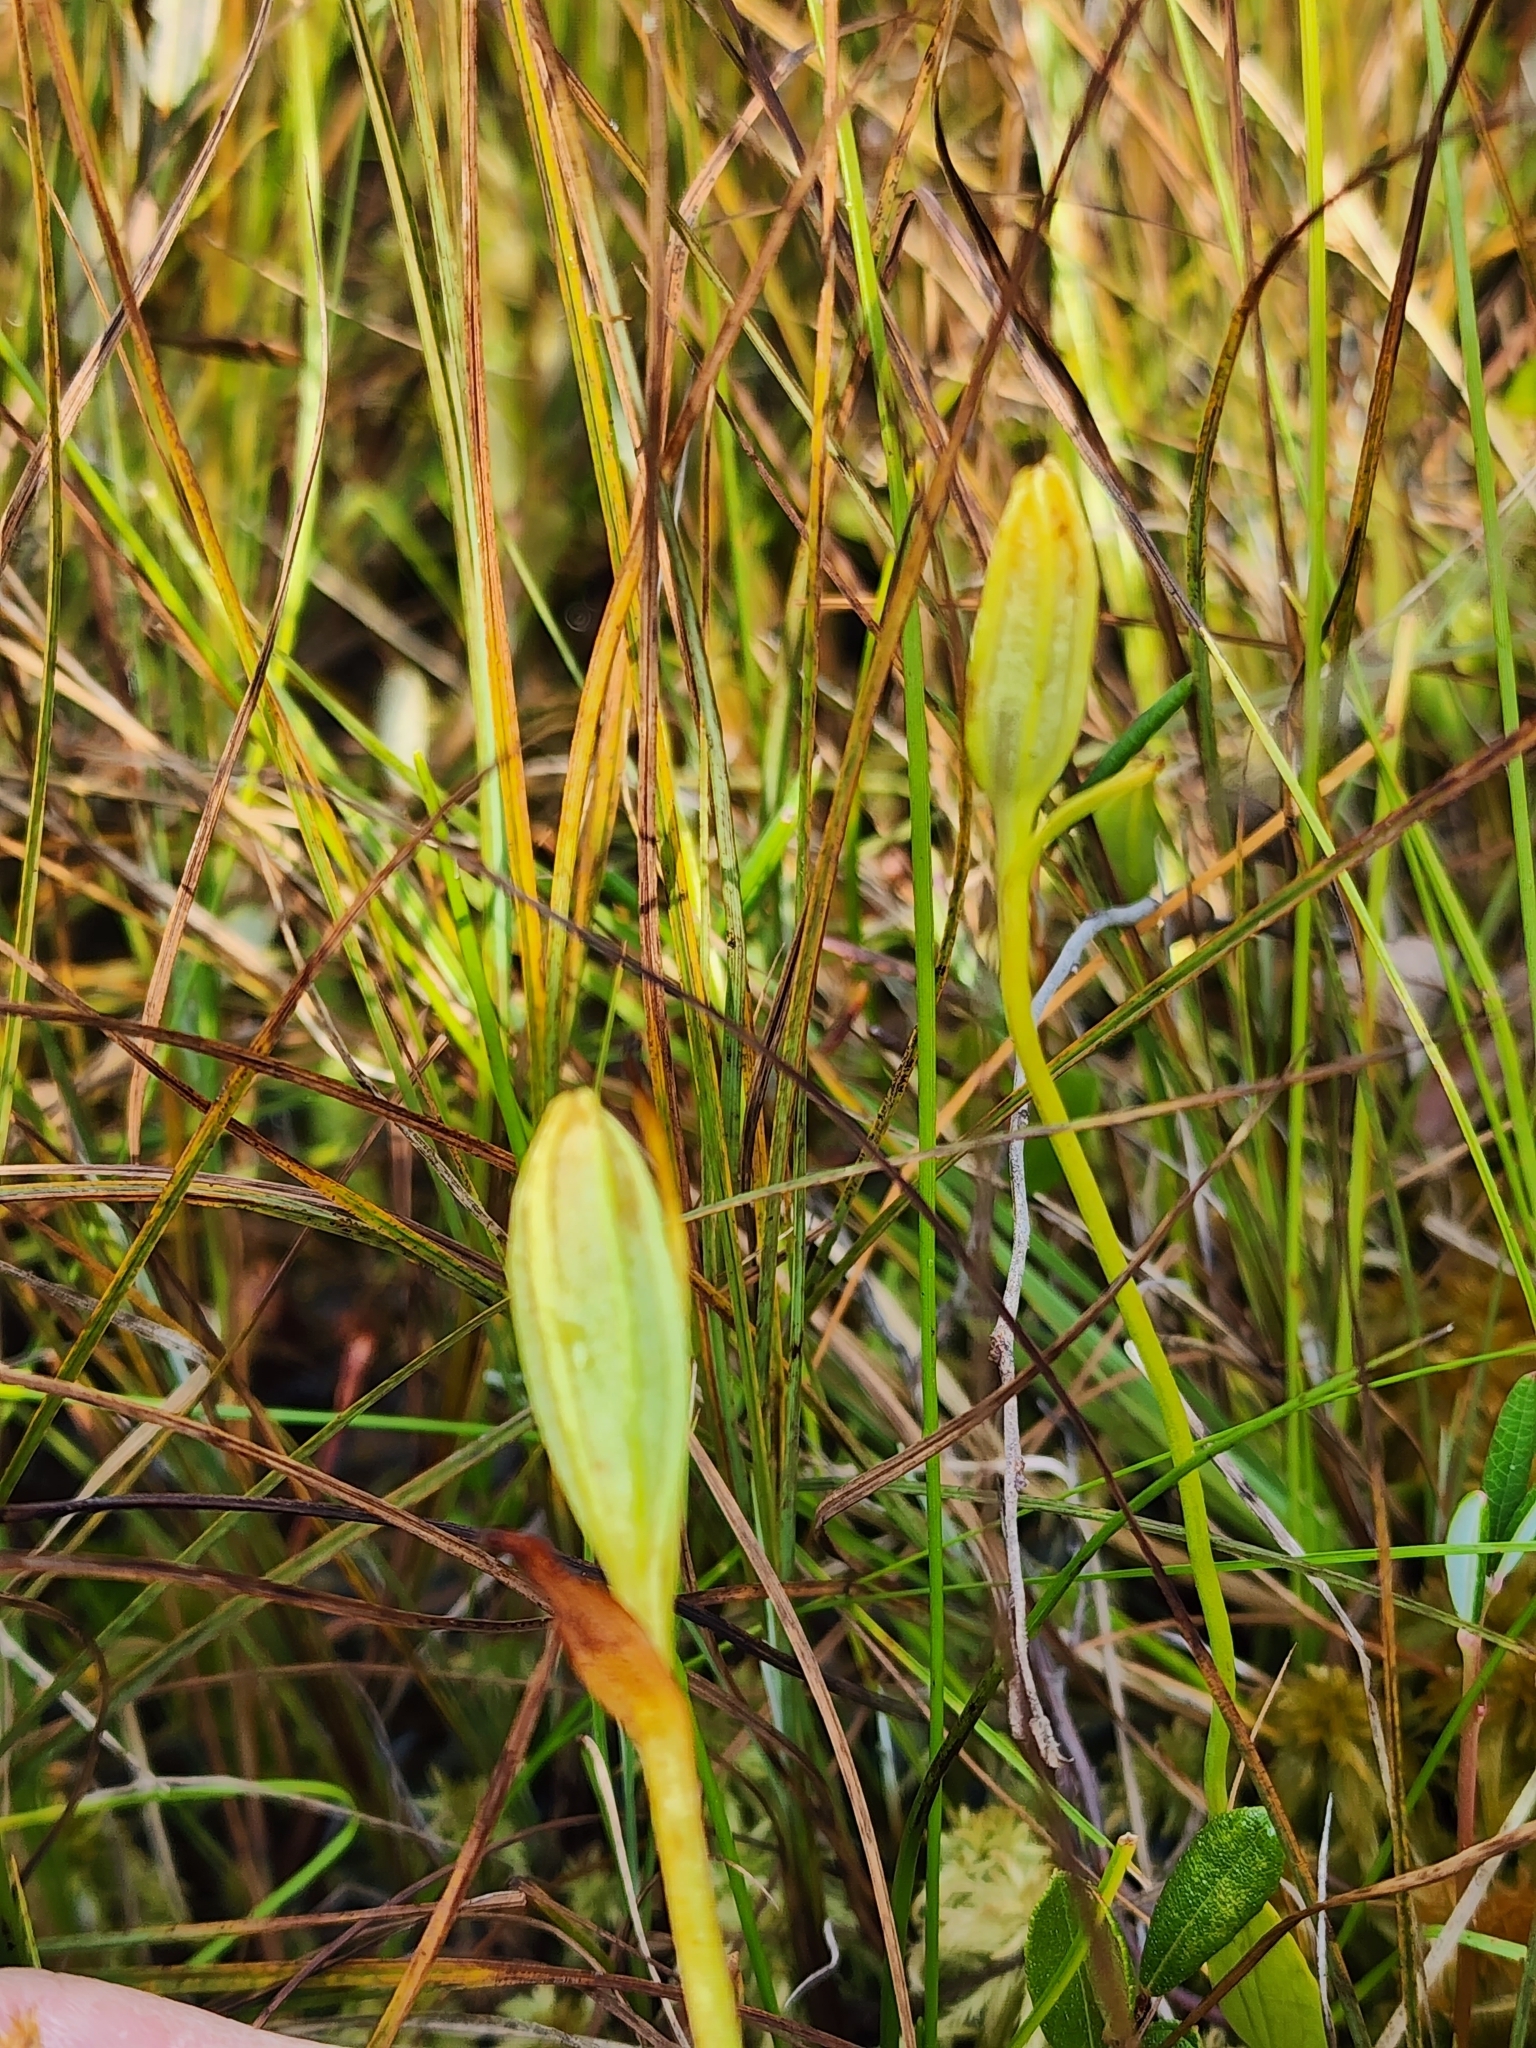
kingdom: Plantae
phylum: Tracheophyta
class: Liliopsida
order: Asparagales
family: Orchidaceae
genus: Pogonia
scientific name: Pogonia ophioglossoides
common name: Rose pogonia
